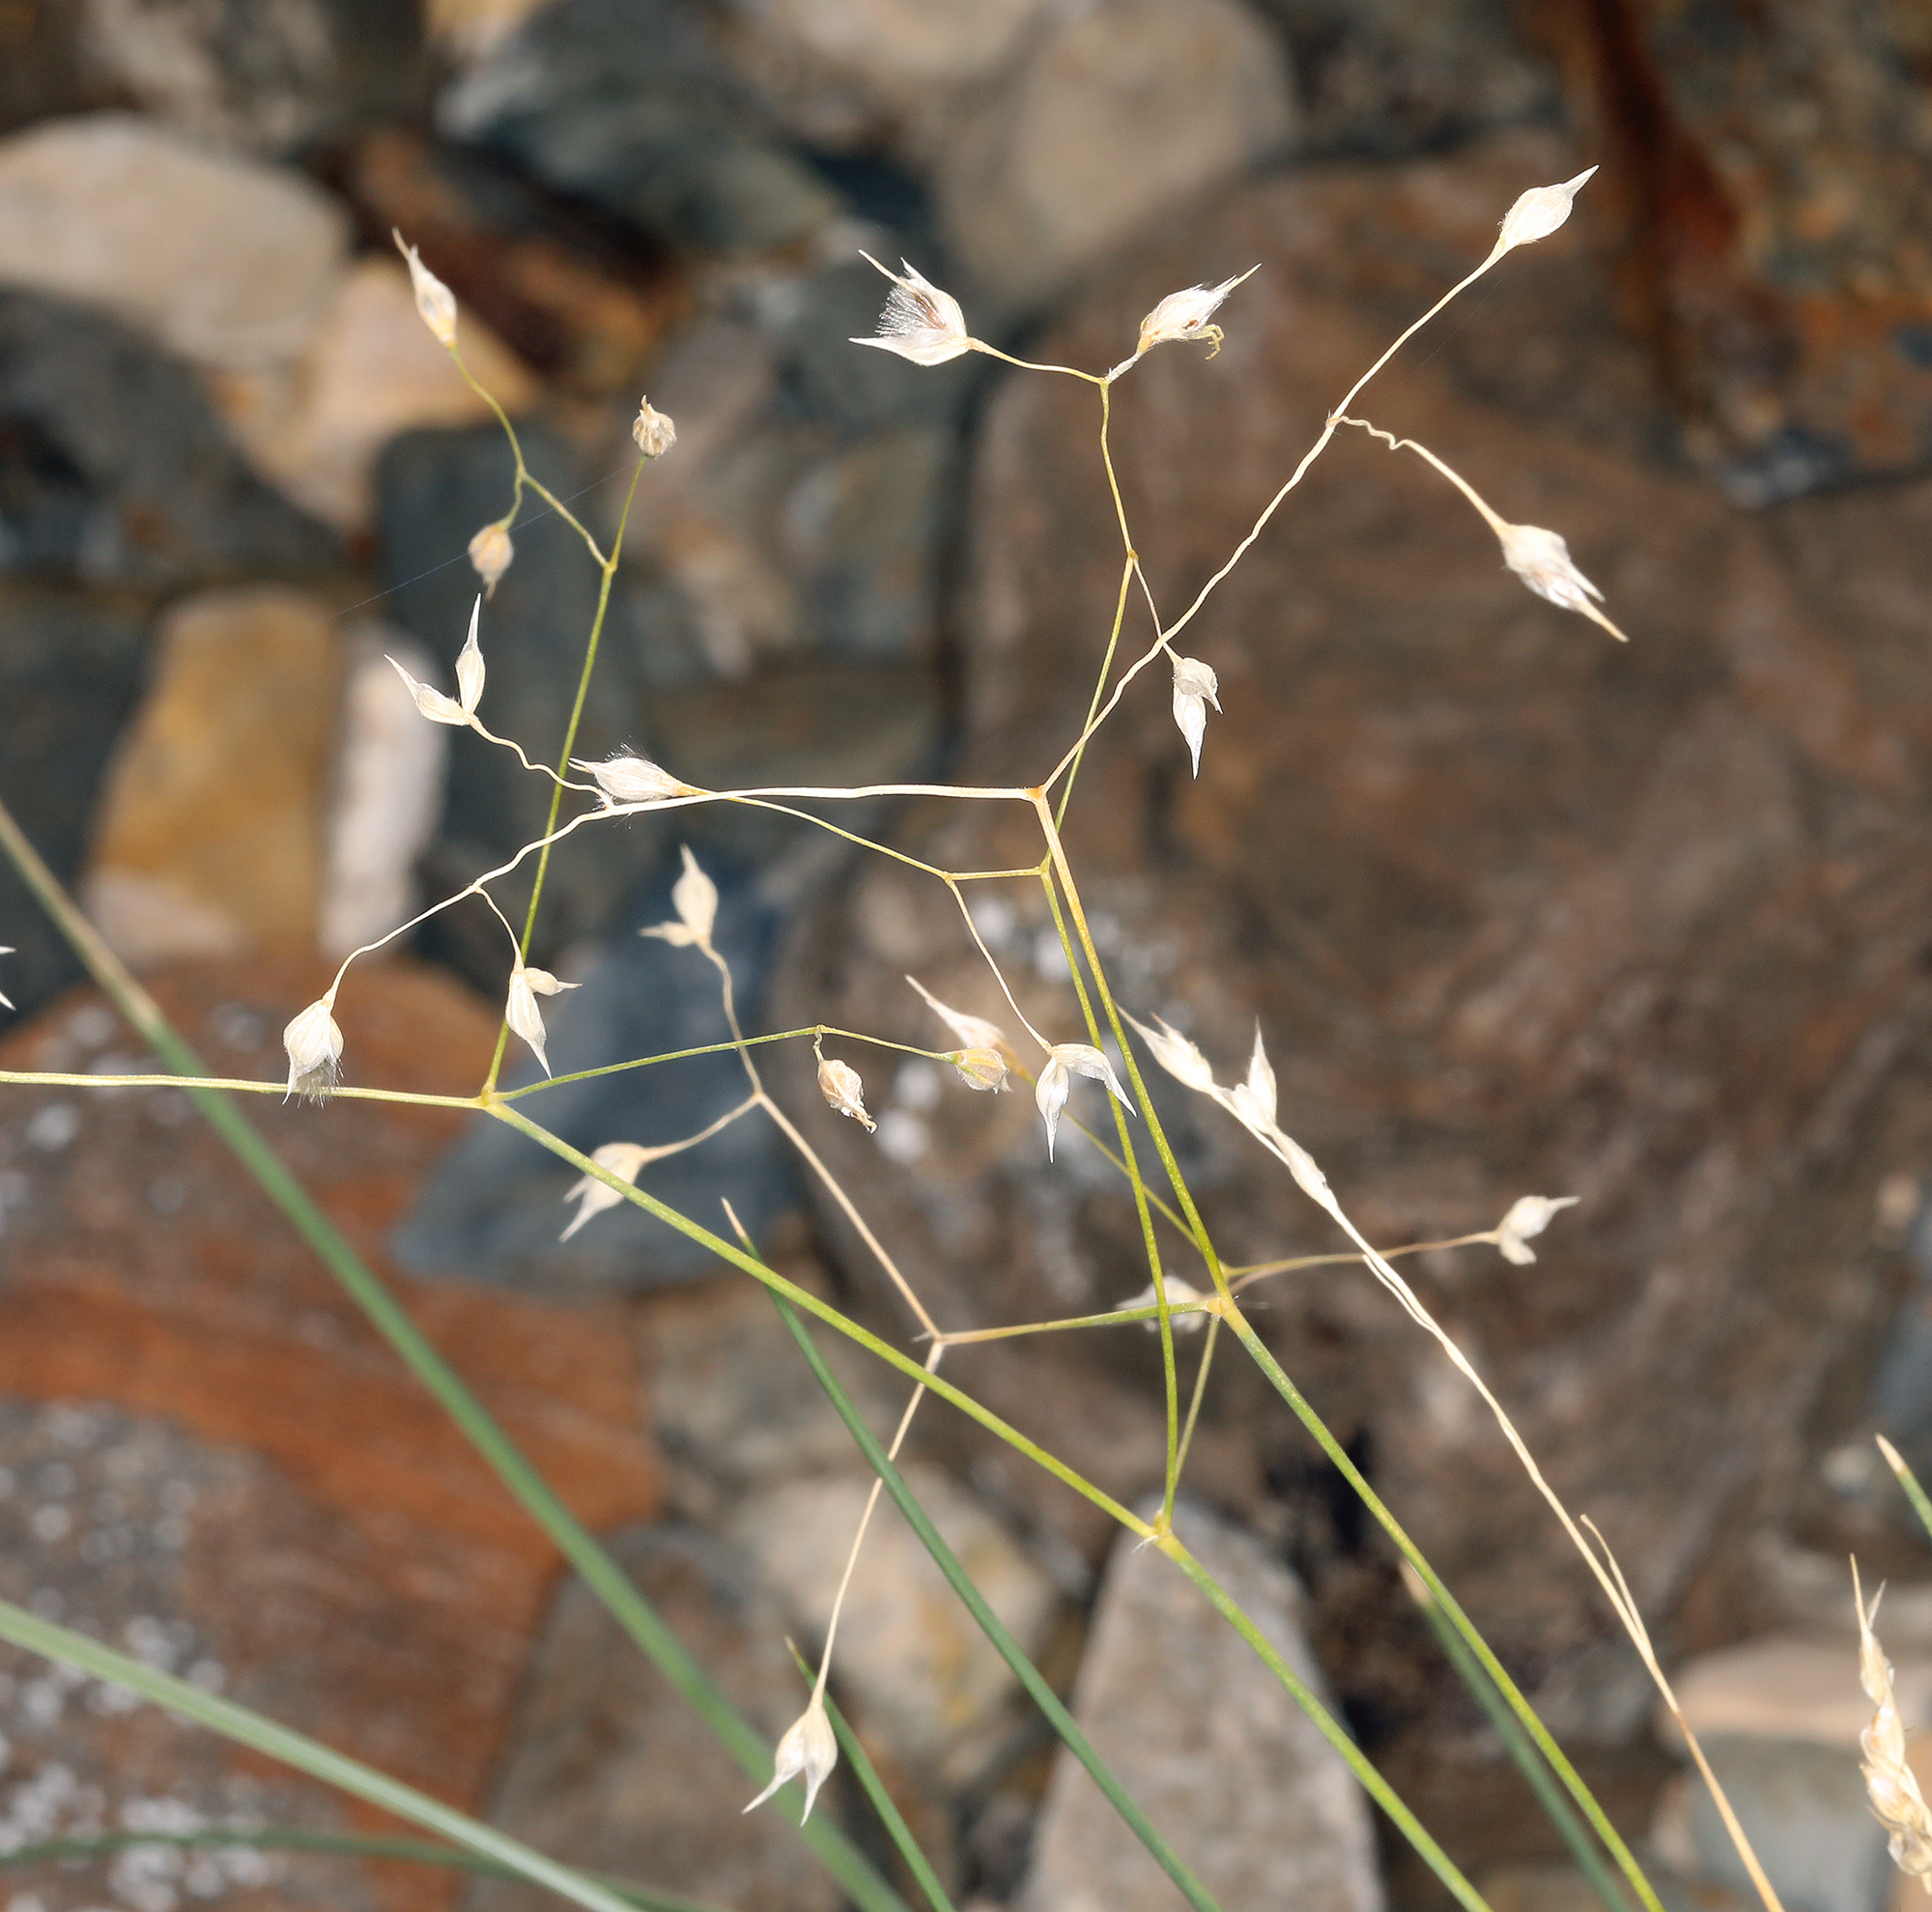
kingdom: Plantae
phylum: Tracheophyta
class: Liliopsida
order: Poales
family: Poaceae
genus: Eriocoma
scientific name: Eriocoma hymenoides
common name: Indian mountain ricegrass
